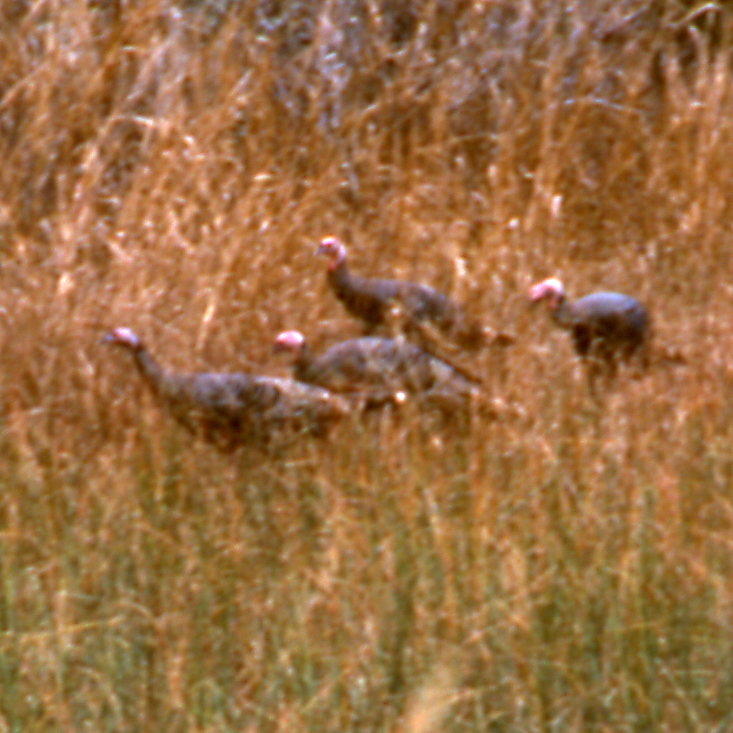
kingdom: Animalia
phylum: Chordata
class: Aves
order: Galliformes
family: Phasianidae
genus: Meleagris
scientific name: Meleagris gallopavo
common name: Wild turkey
